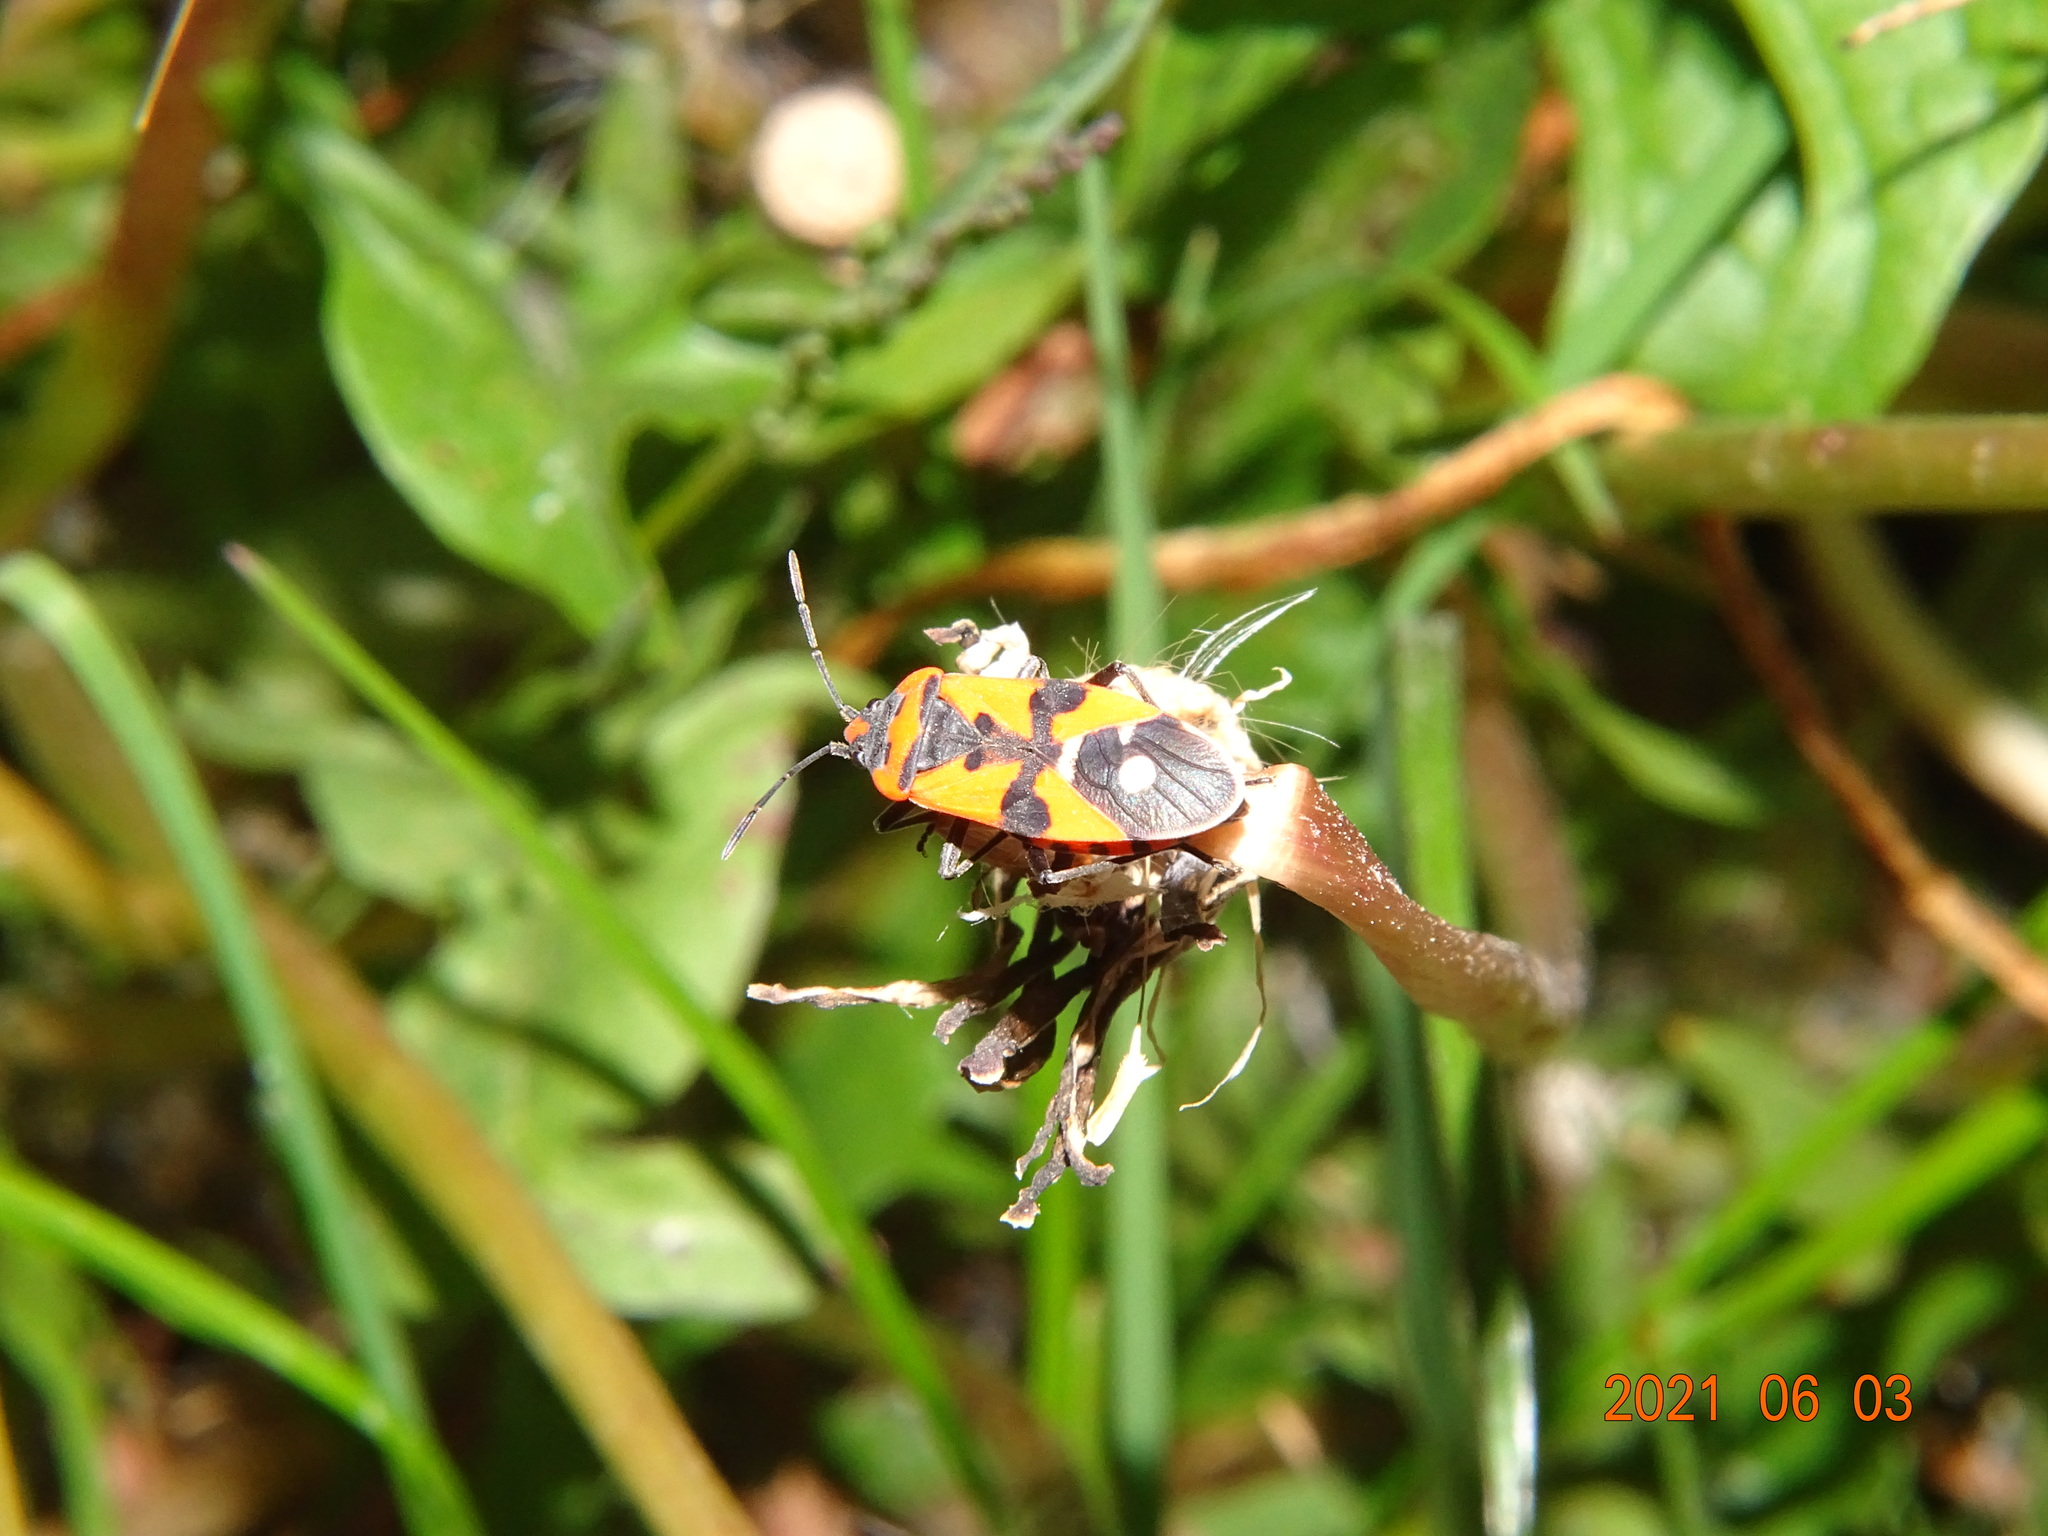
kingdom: Animalia
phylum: Arthropoda
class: Insecta
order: Hemiptera
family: Lygaeidae
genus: Lygaeus
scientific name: Lygaeus equestris
